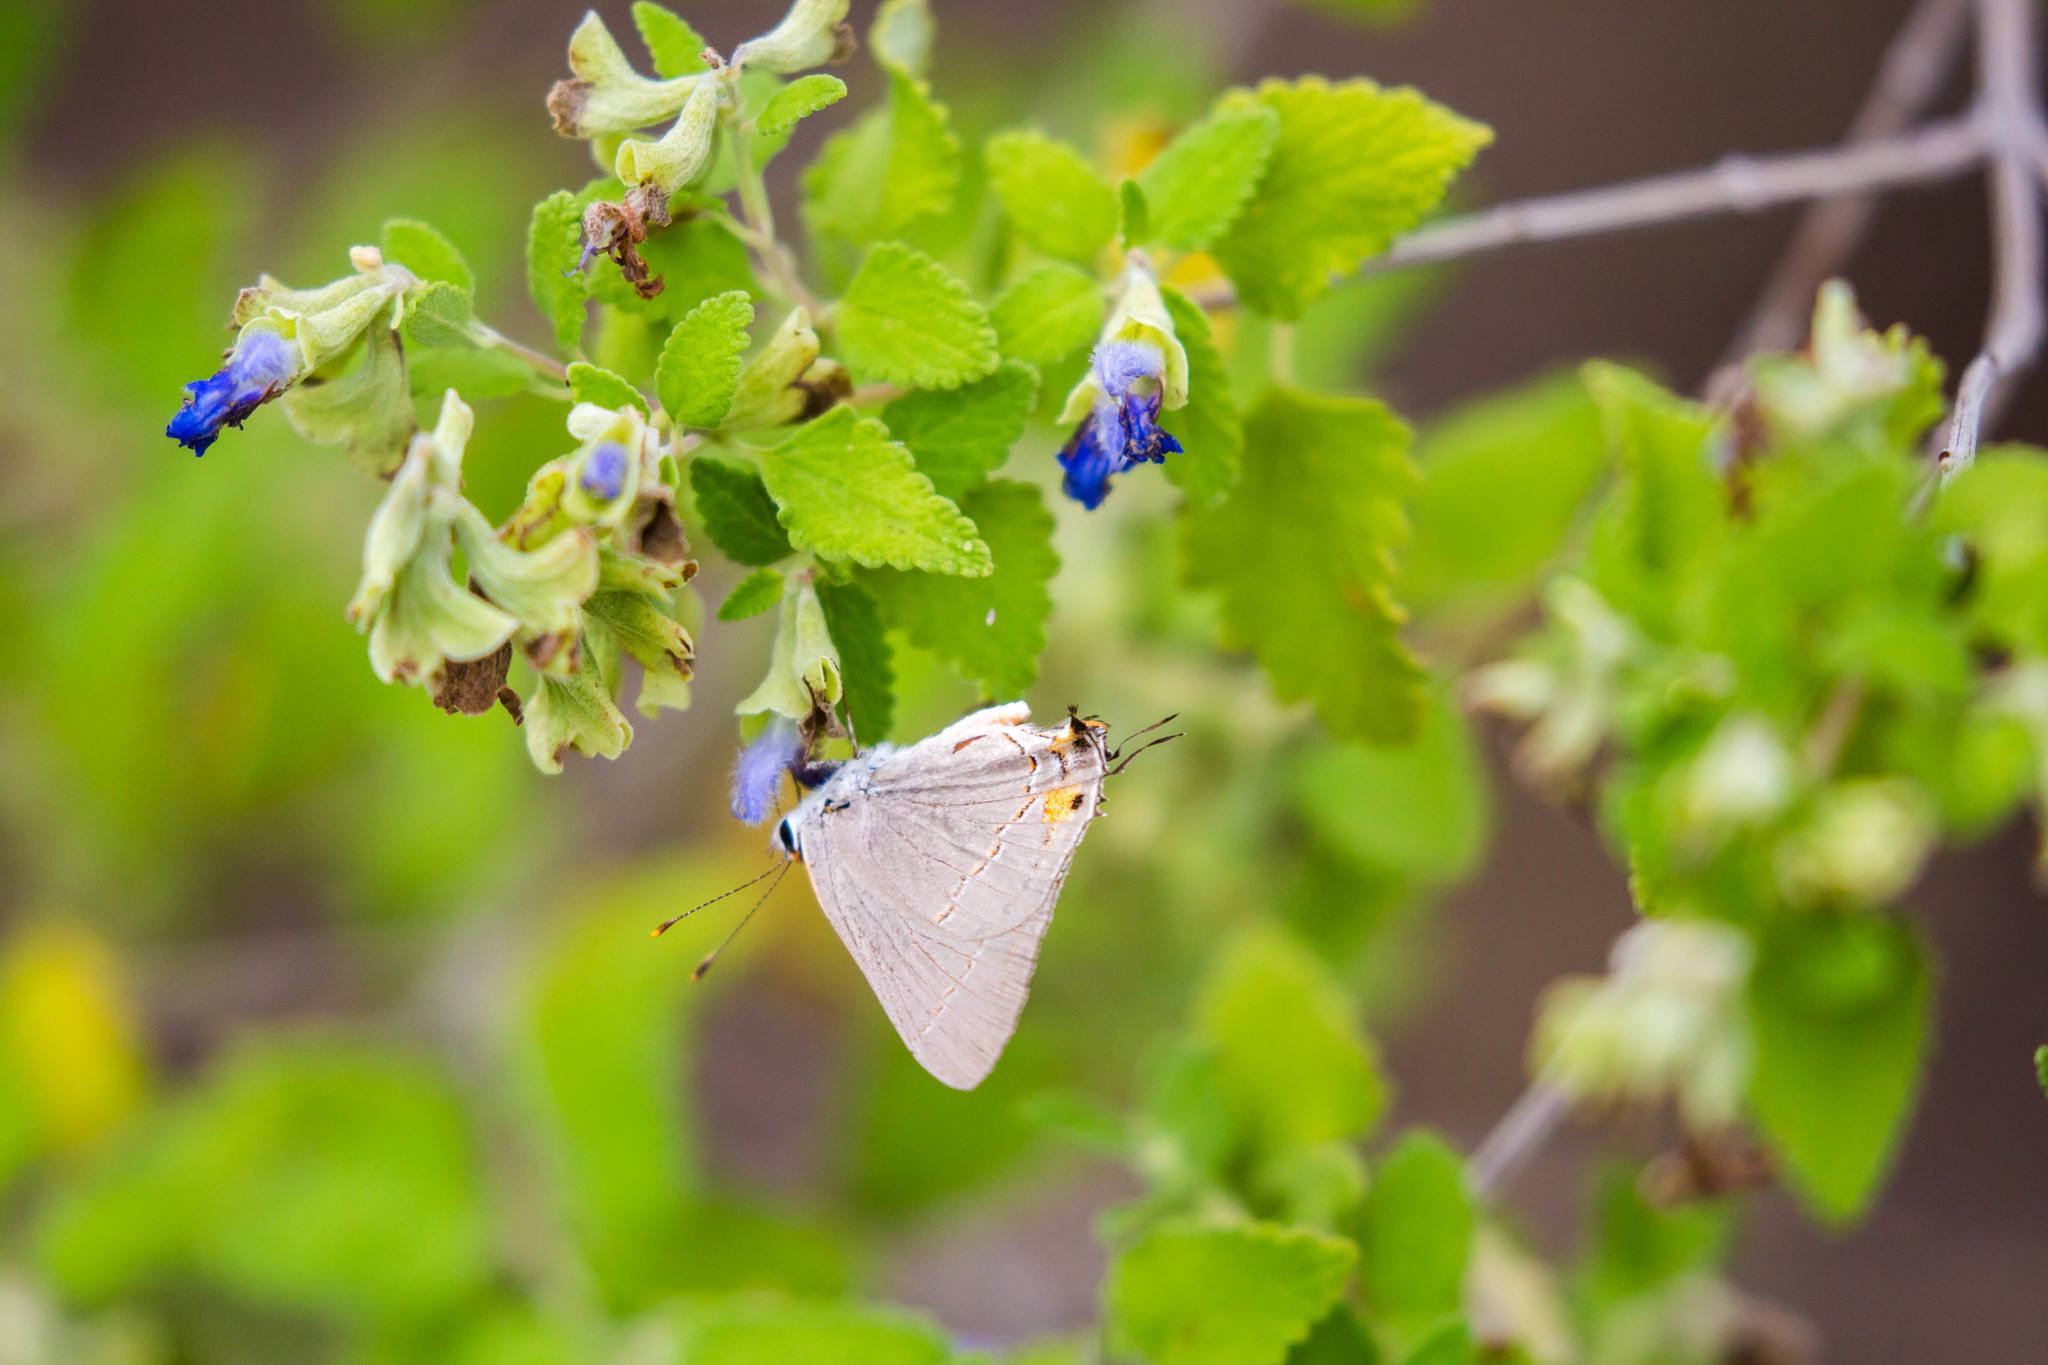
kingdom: Animalia
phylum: Arthropoda
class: Insecta
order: Lepidoptera
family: Lycaenidae
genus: Strymon
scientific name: Strymon melinus
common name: Gray hairstreak
